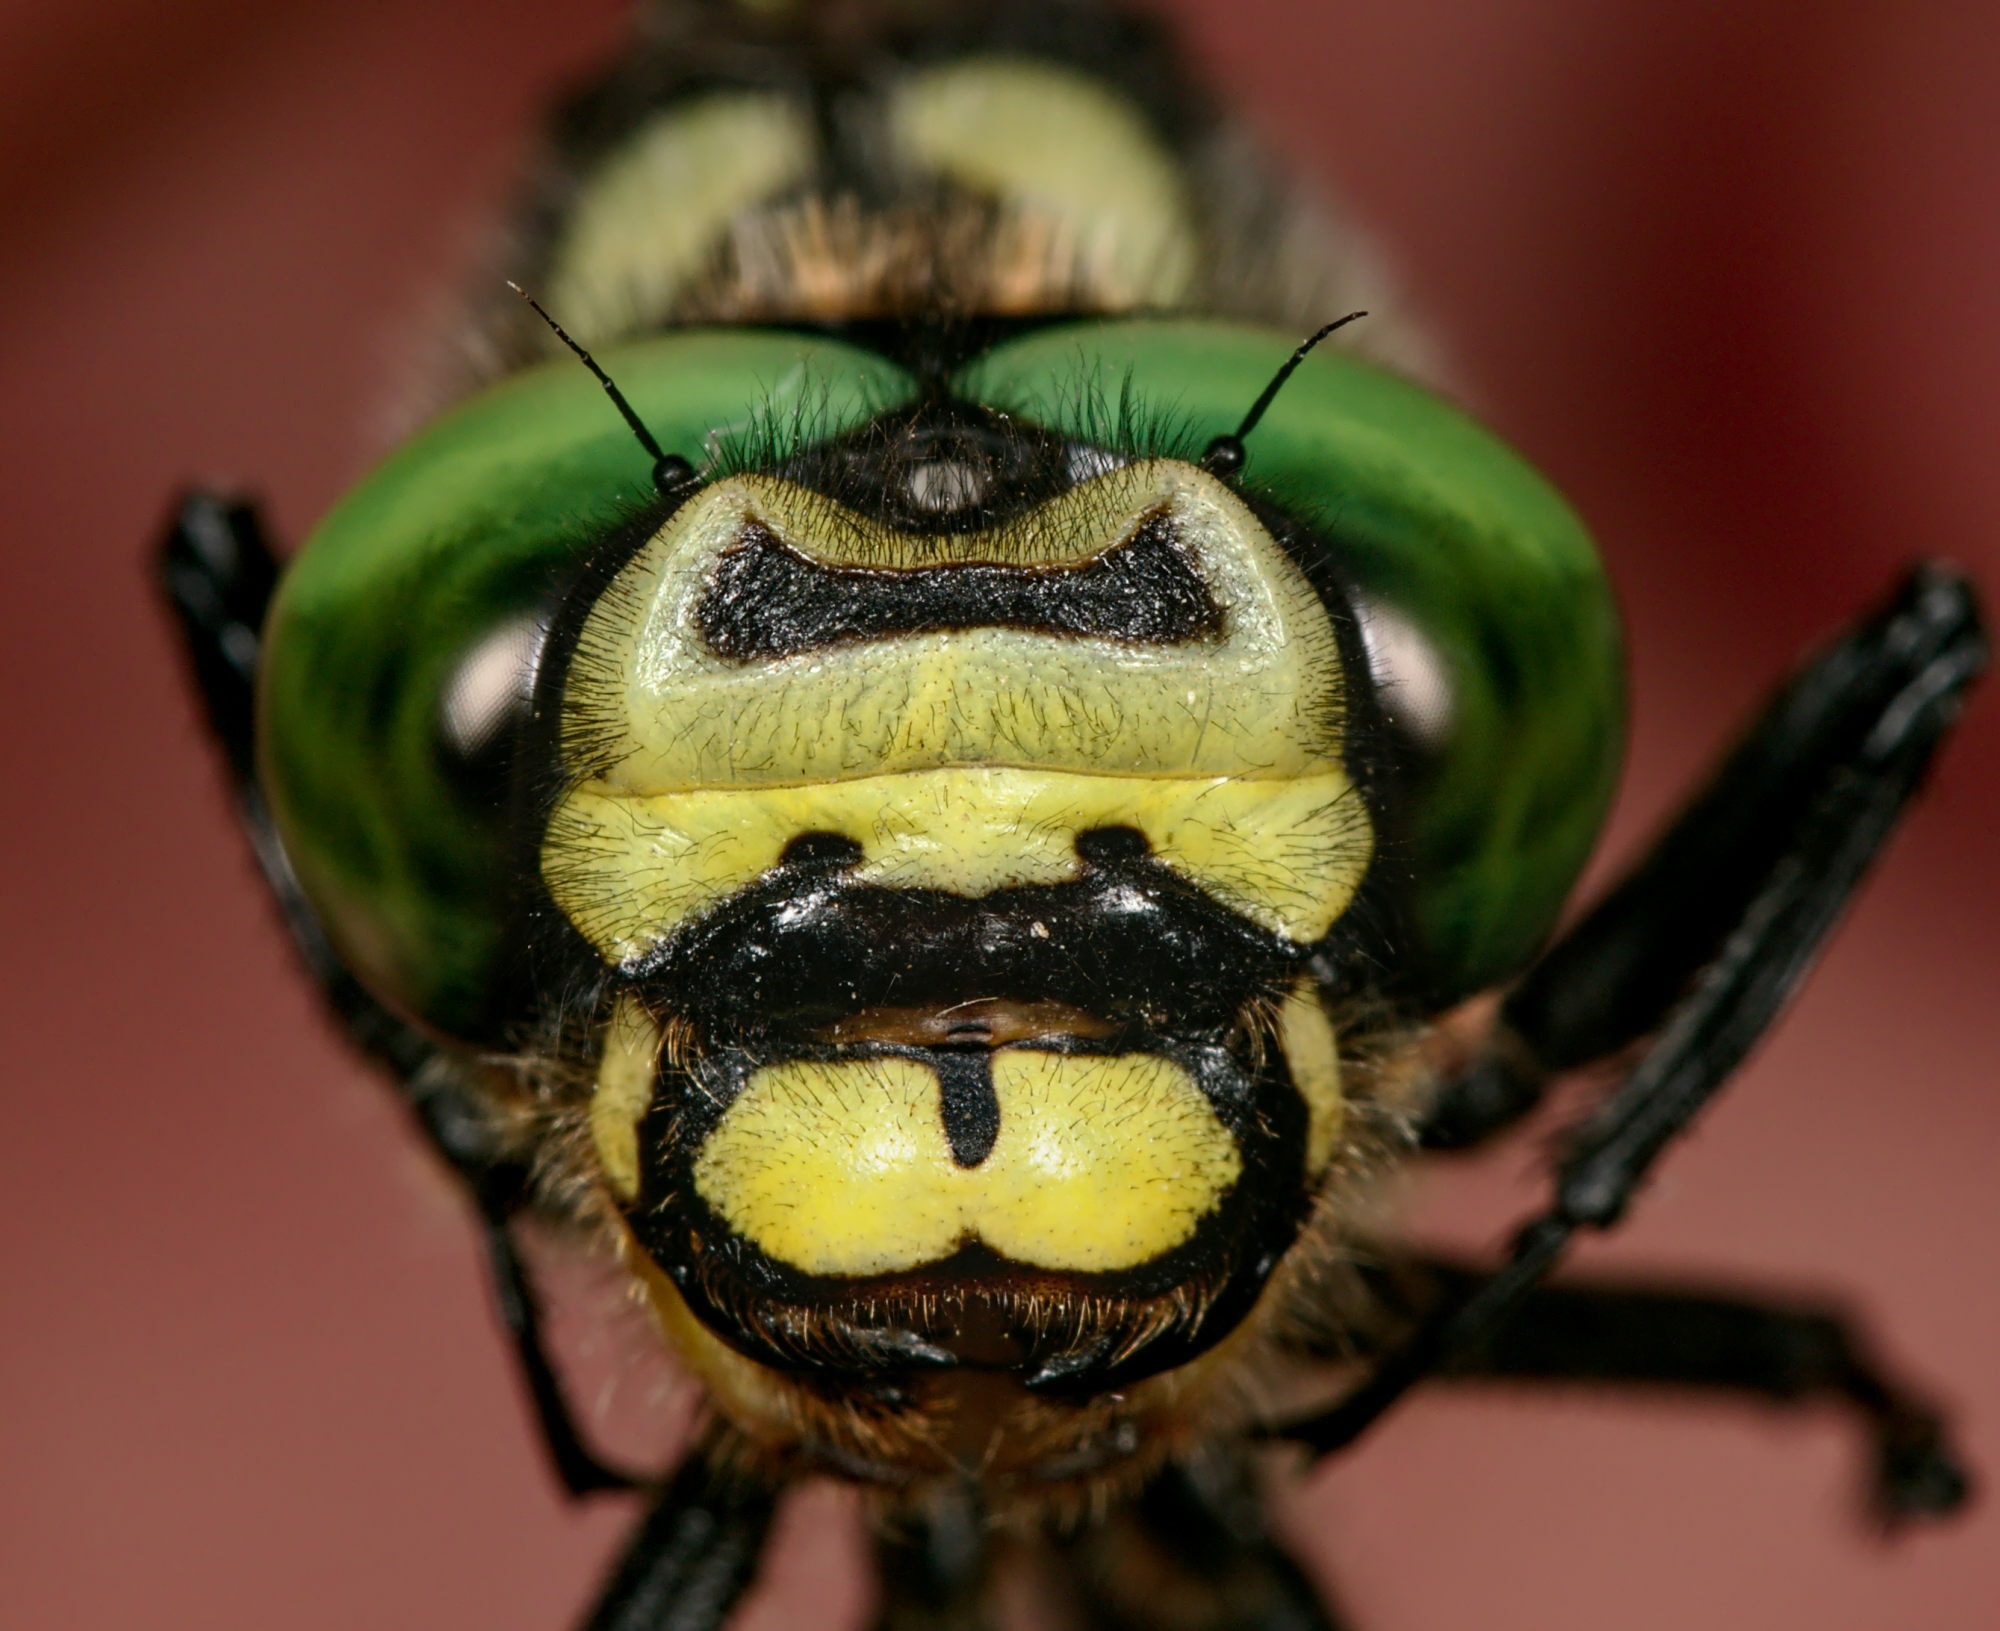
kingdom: Animalia
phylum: Arthropoda
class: Insecta
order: Odonata
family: Cordulegastridae
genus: Cordulegaster
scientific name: Cordulegaster bidentata
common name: Sombre goldenring
